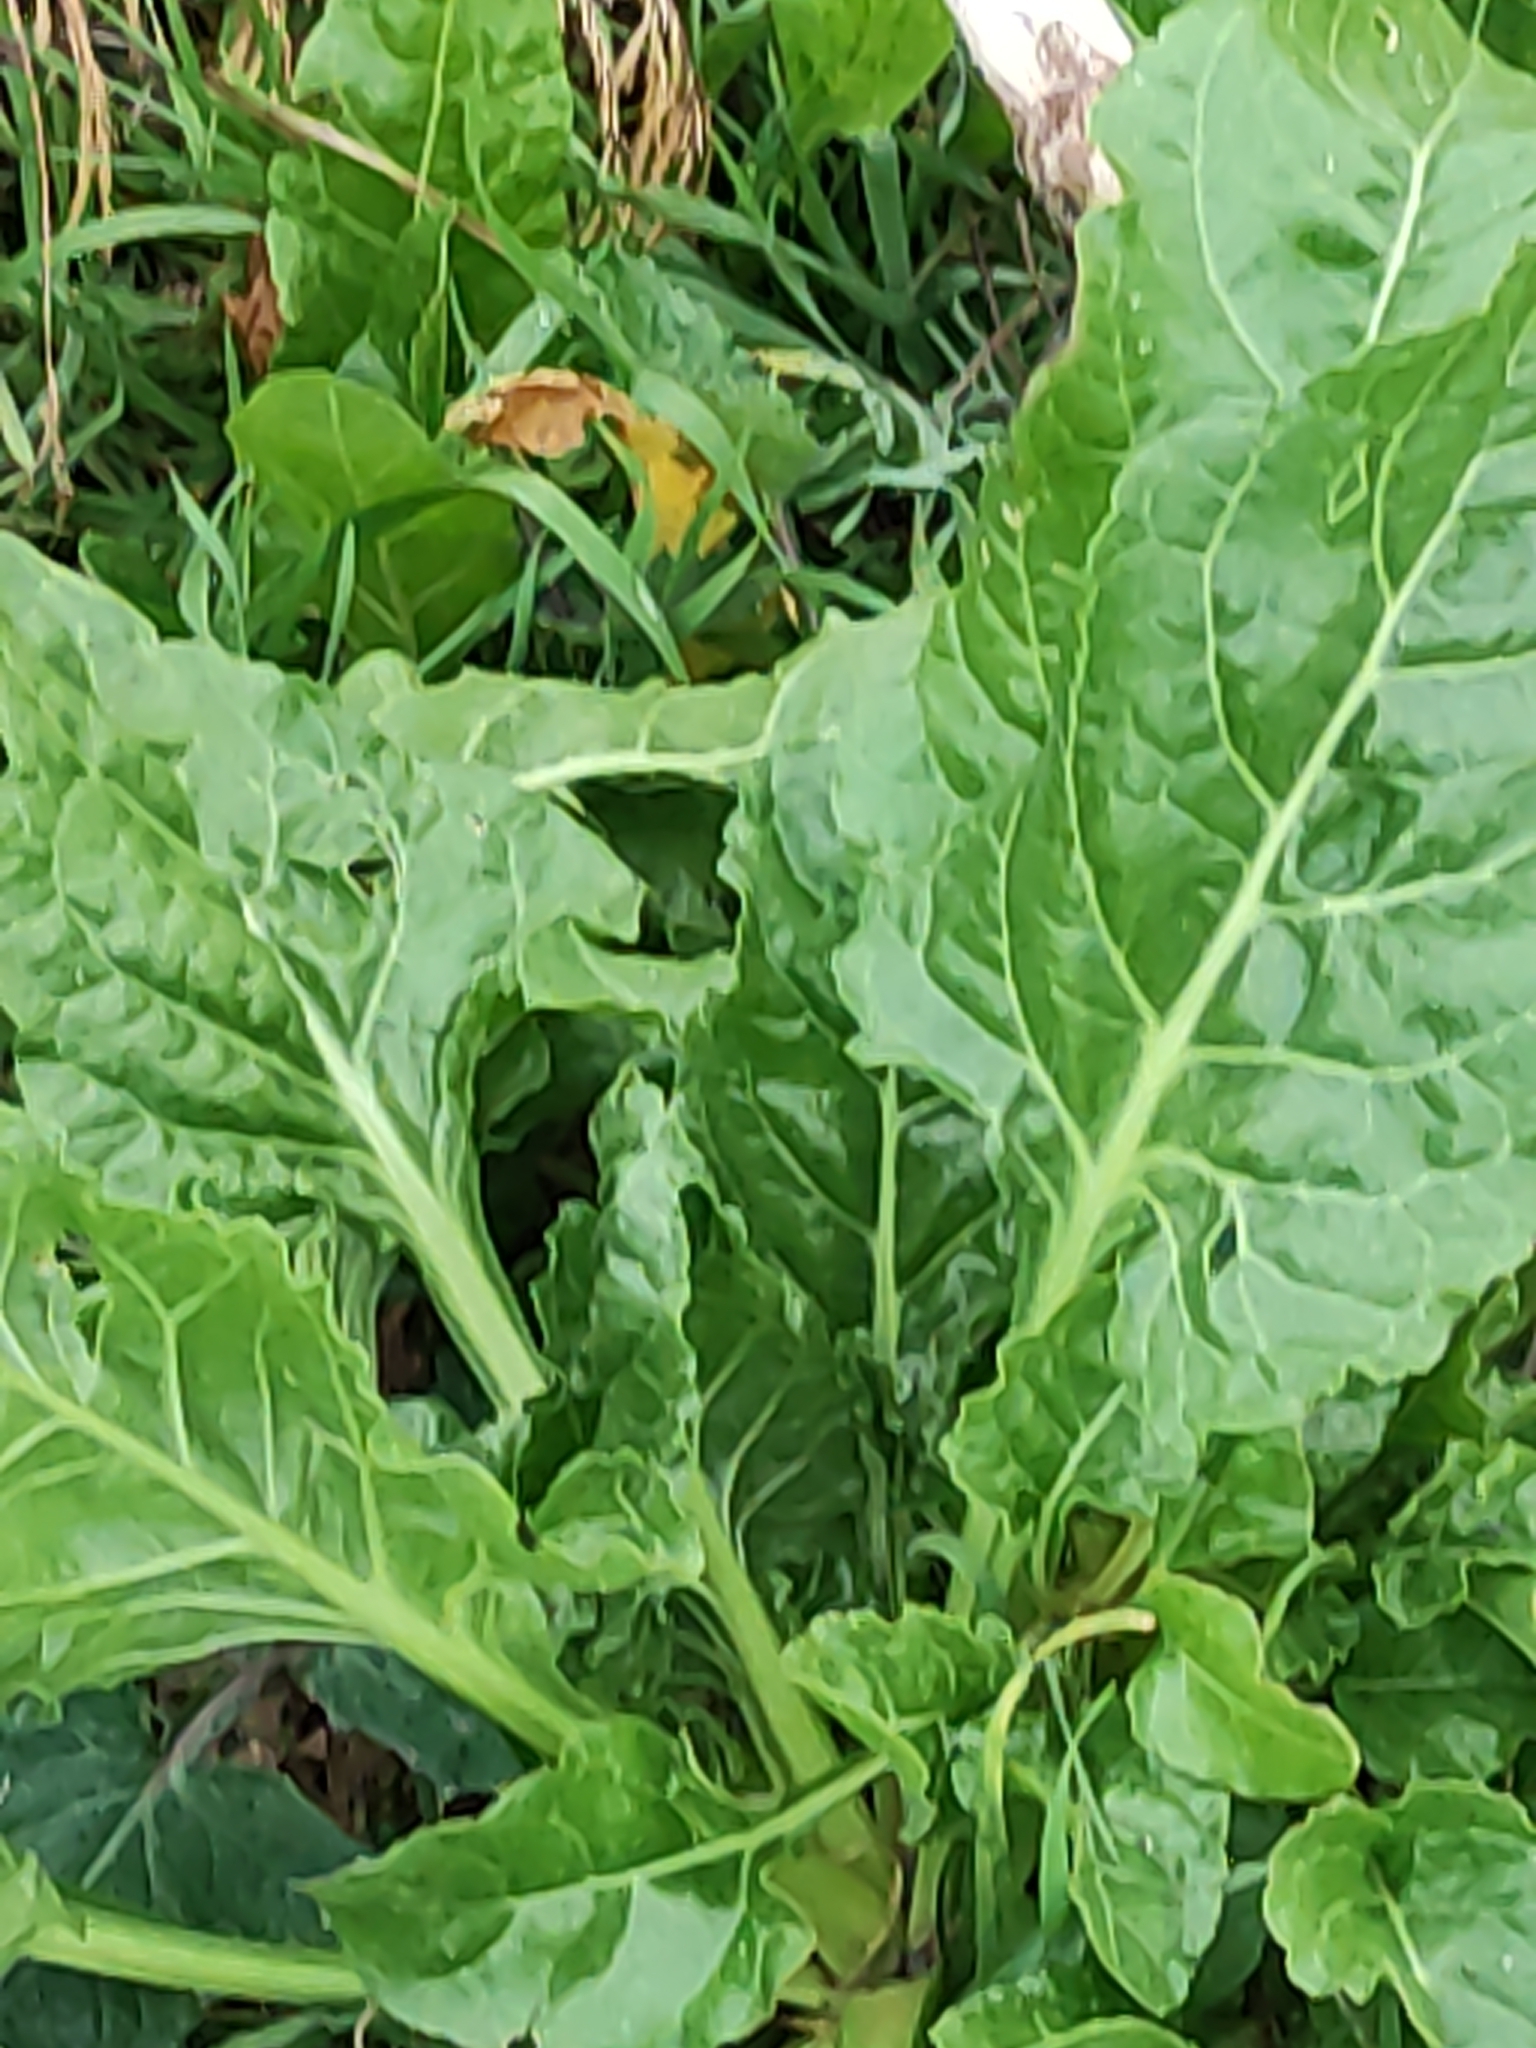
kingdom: Plantae
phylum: Tracheophyta
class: Magnoliopsida
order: Caryophyllales
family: Amaranthaceae
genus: Beta
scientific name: Beta vulgaris
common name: Beet
